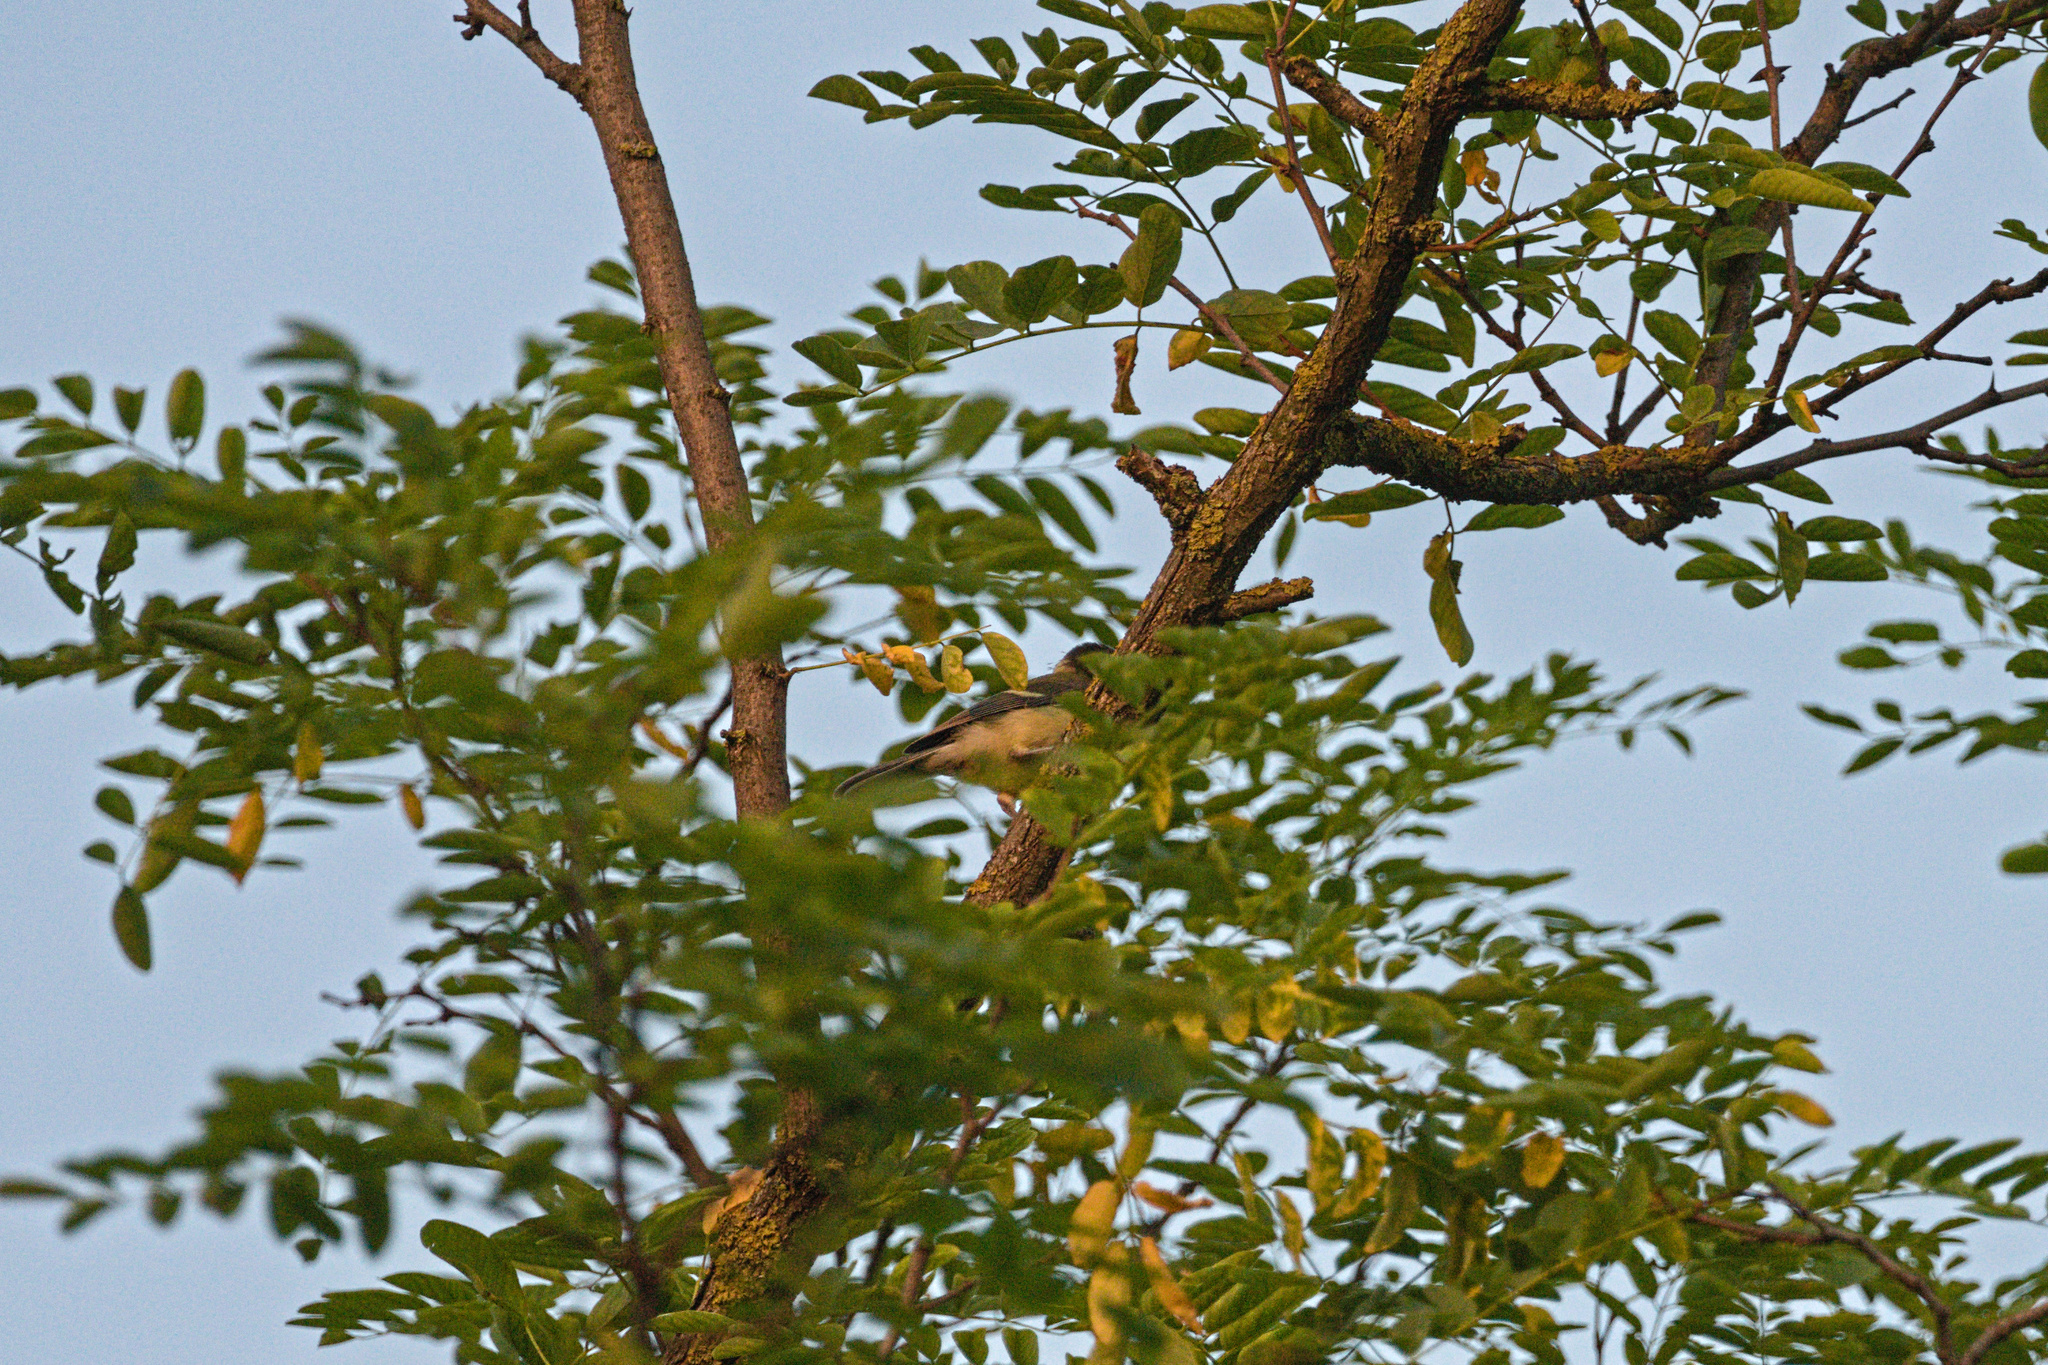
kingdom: Animalia
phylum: Chordata
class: Aves
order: Passeriformes
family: Paridae
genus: Parus
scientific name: Parus major
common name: Great tit
